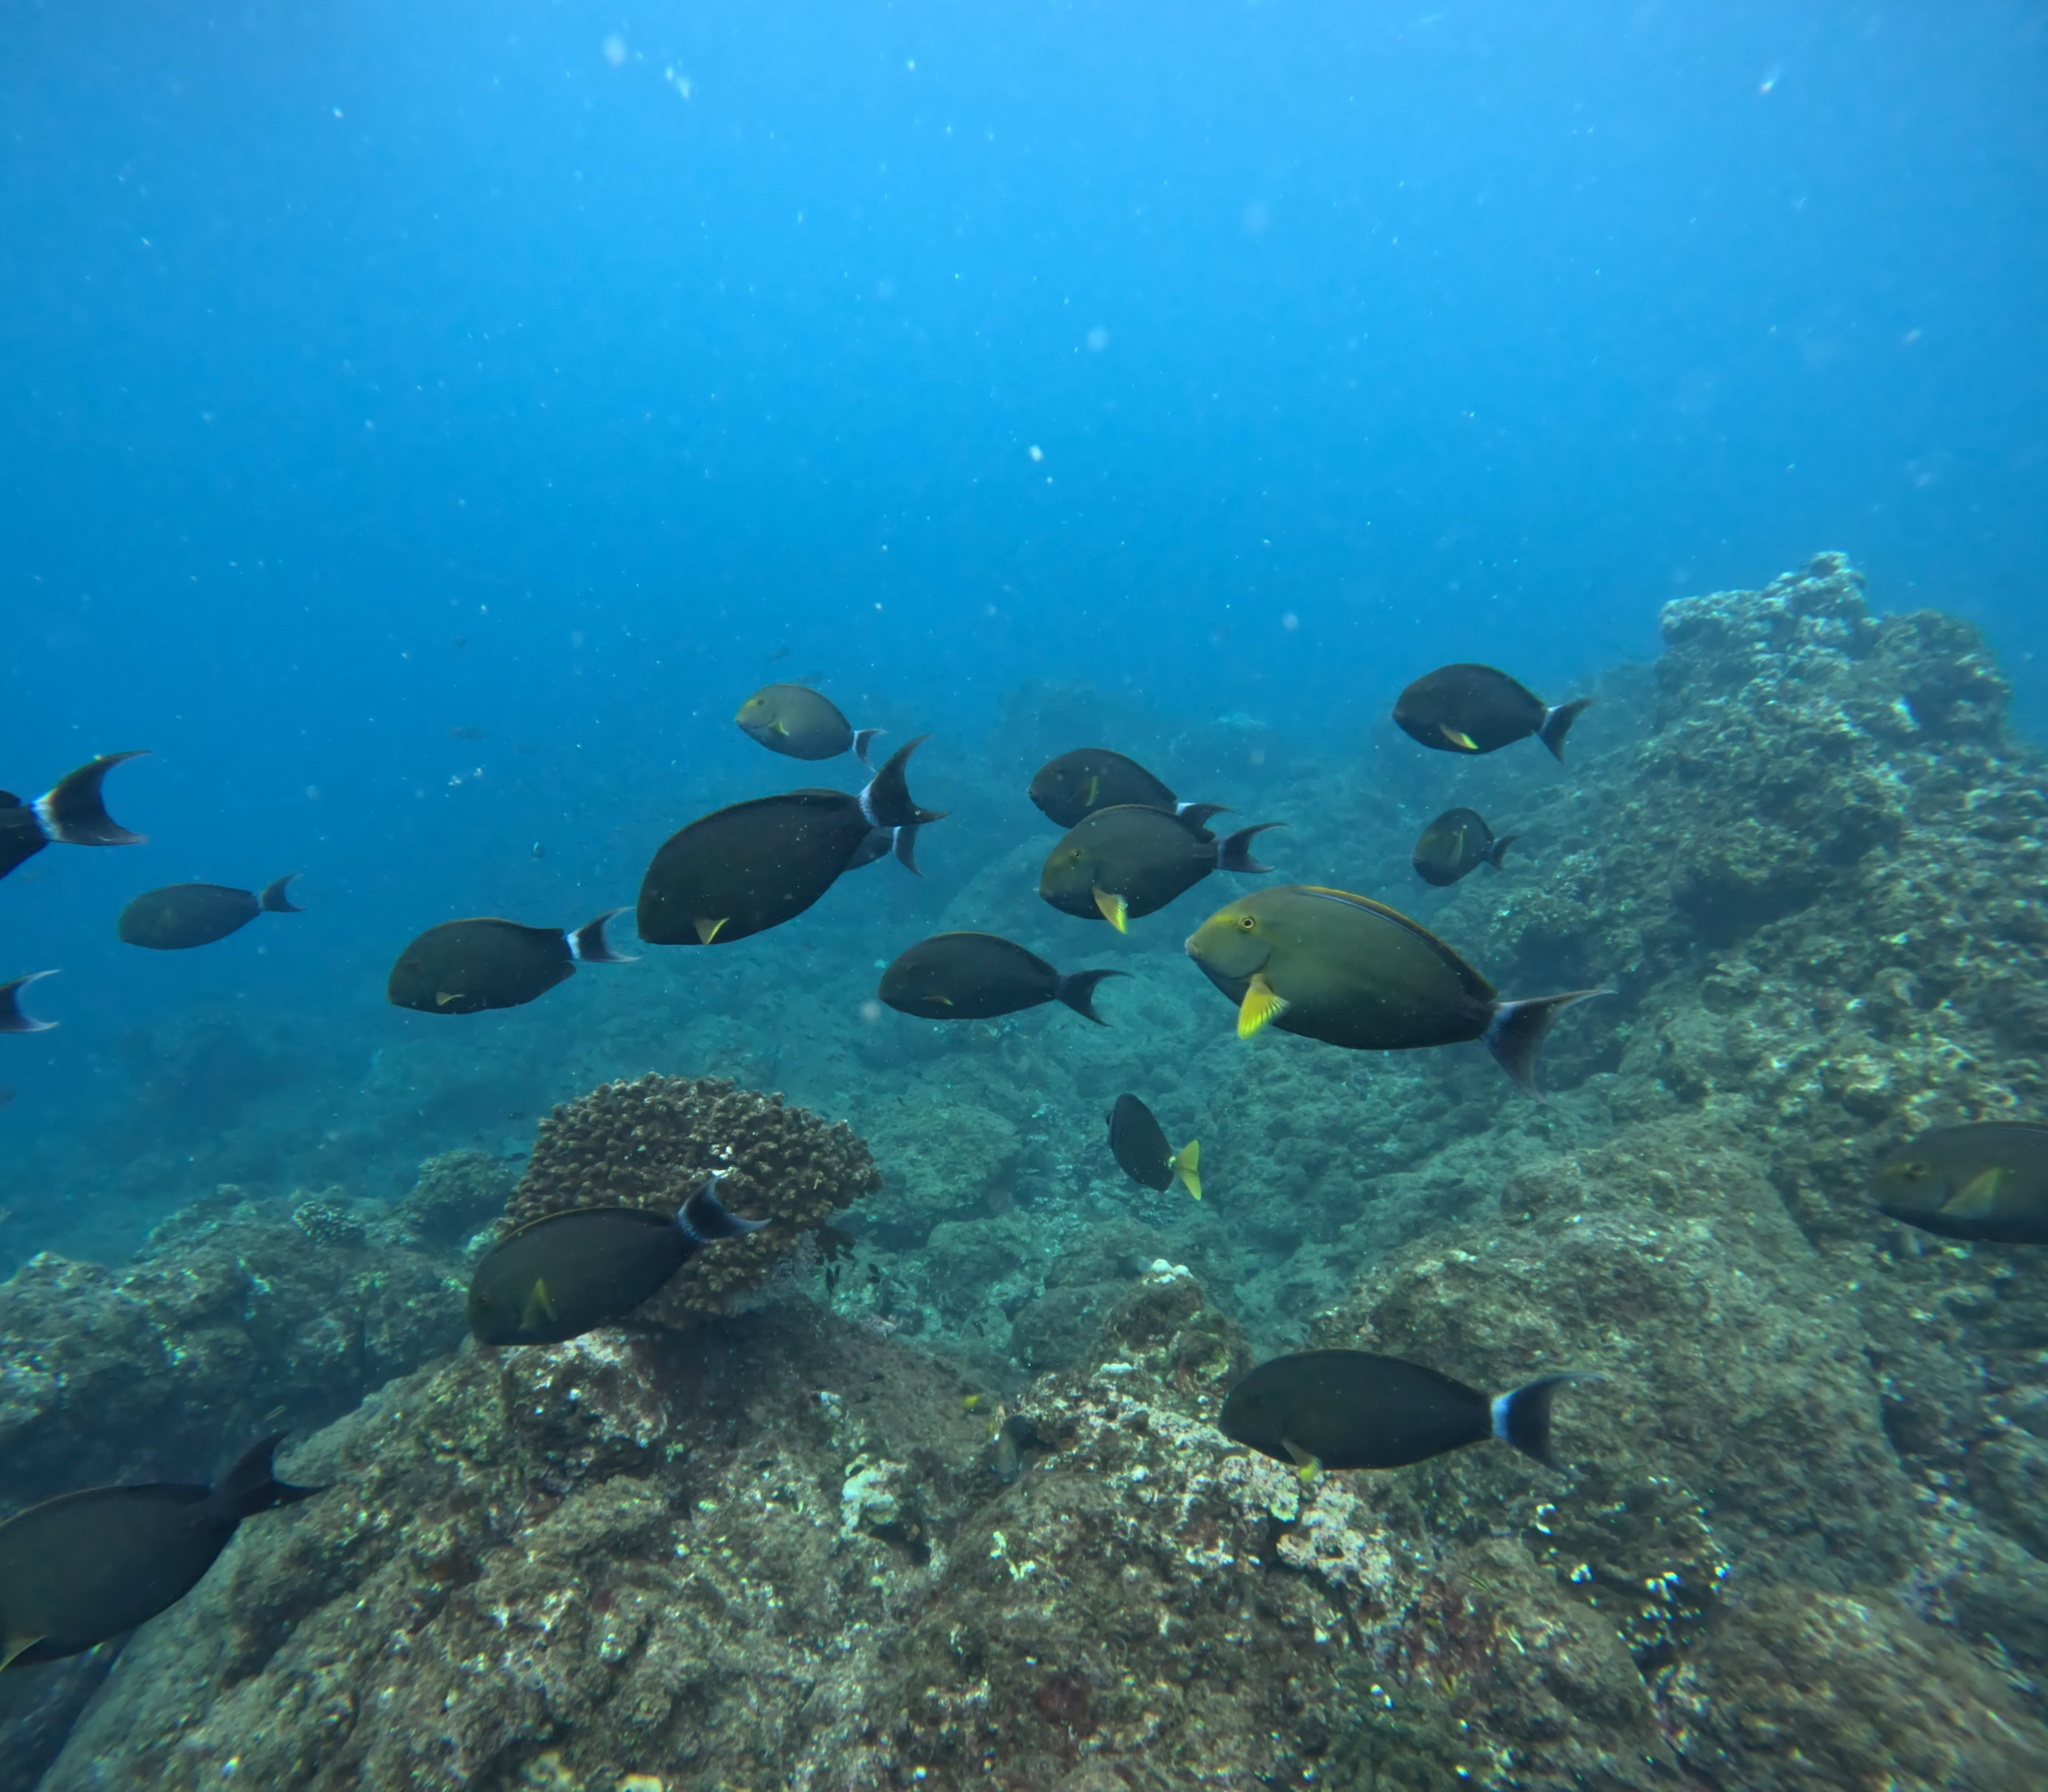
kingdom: Animalia
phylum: Chordata
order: Perciformes
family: Acanthuridae
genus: Acanthurus
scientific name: Acanthurus xanthopterus
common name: Cuvier's surgeonfish
